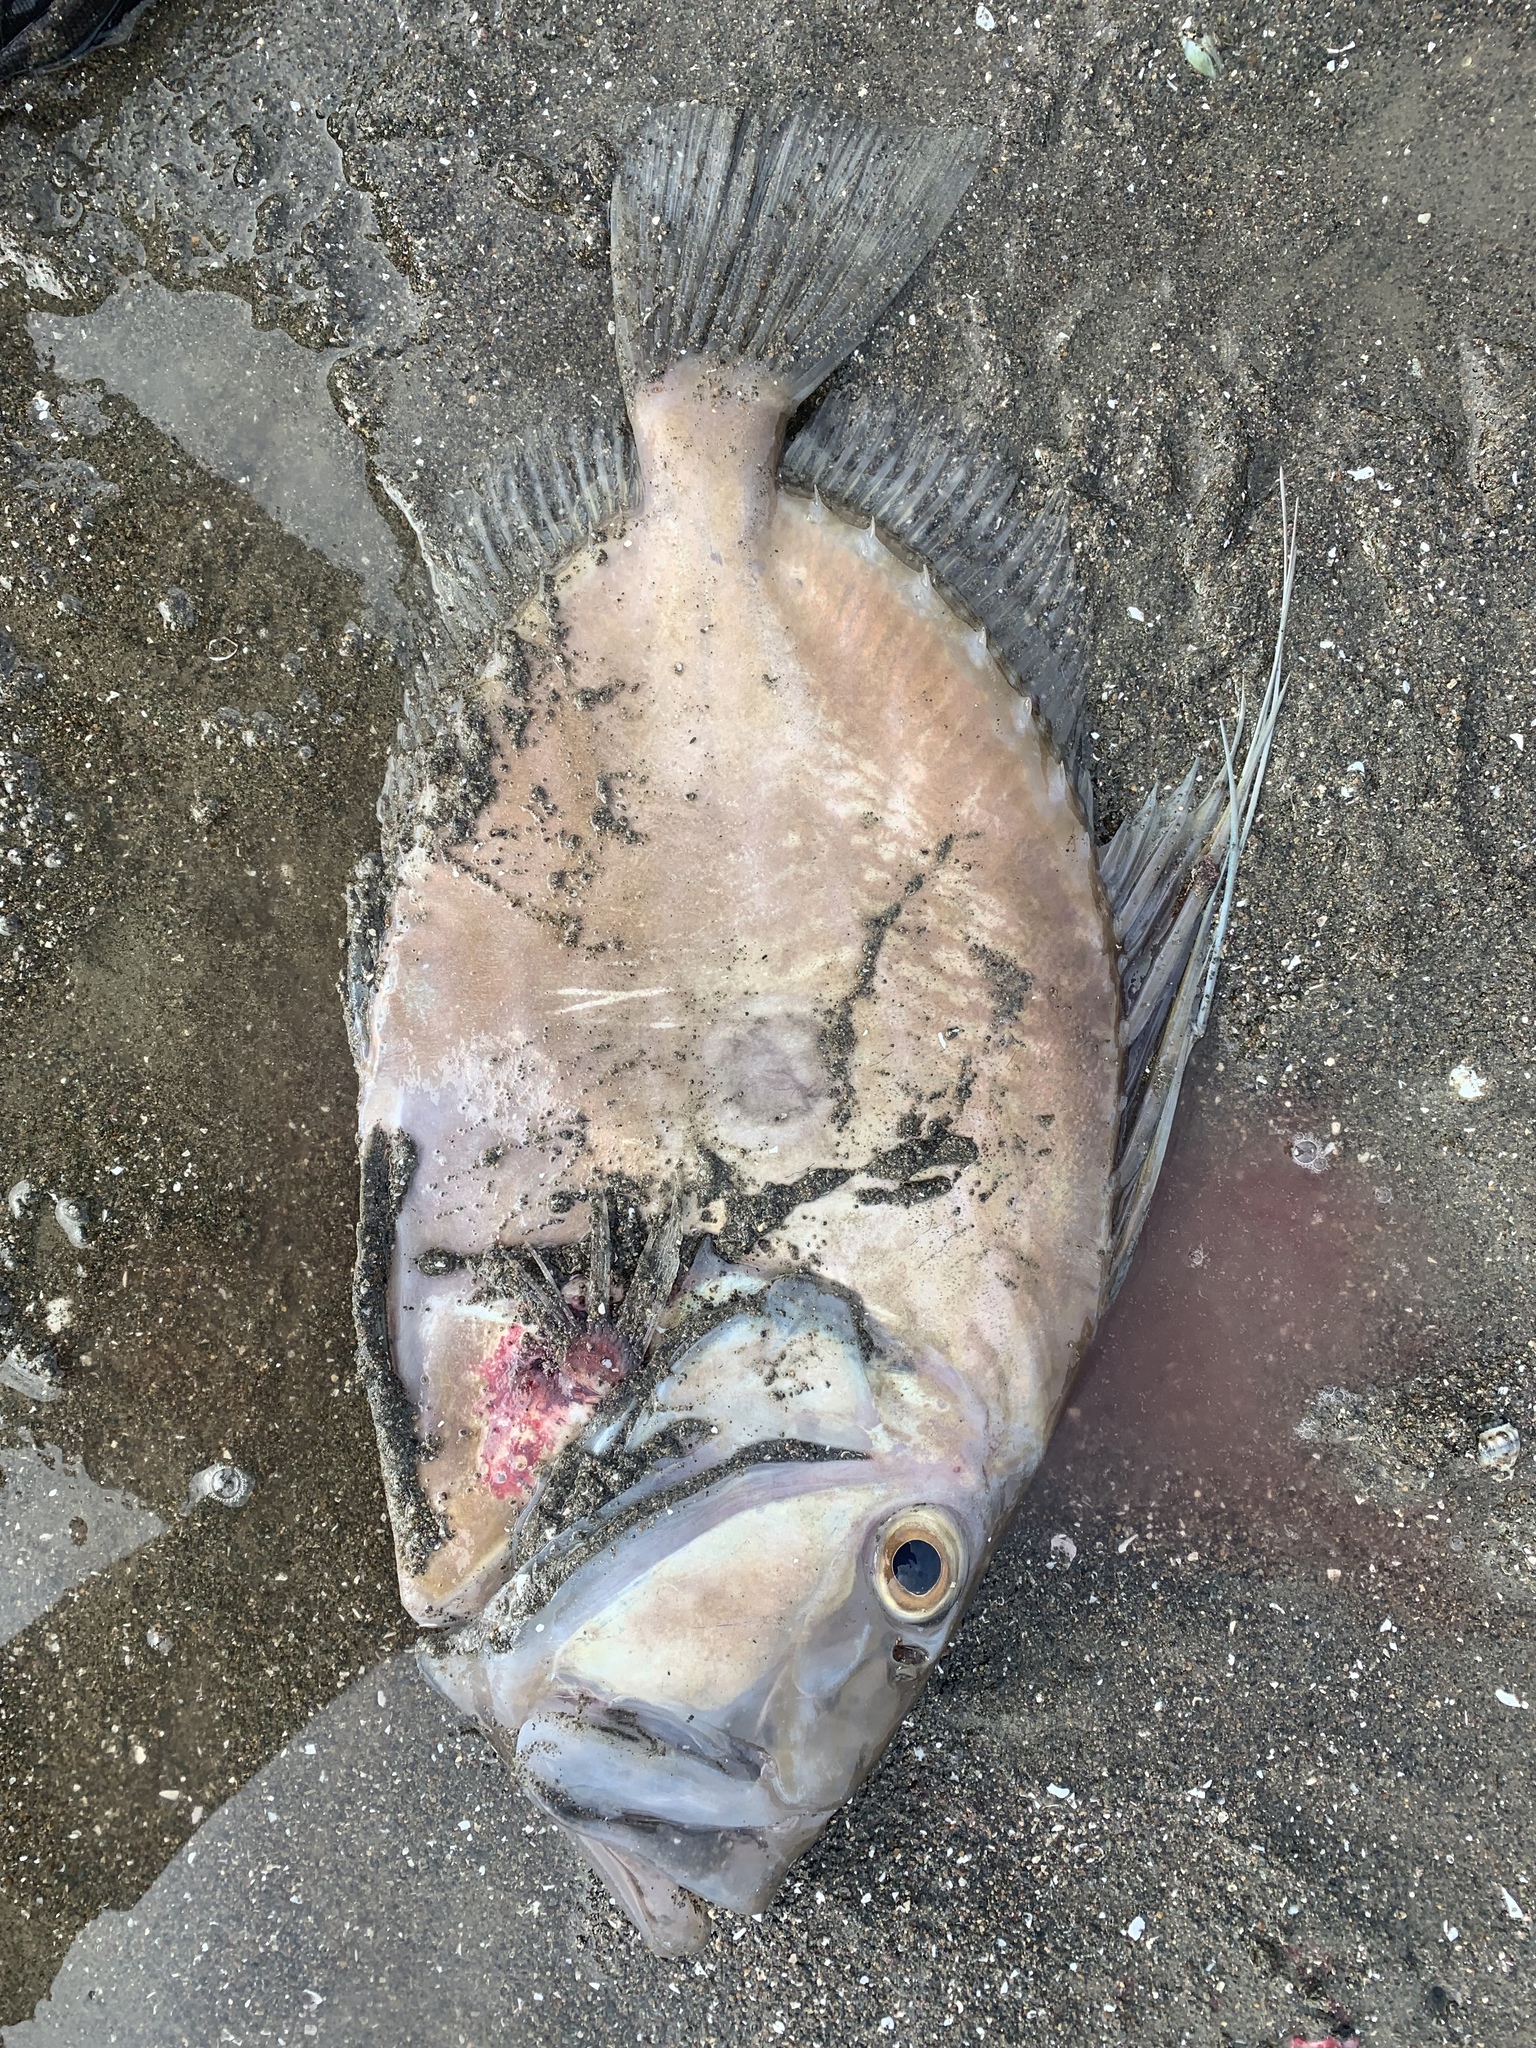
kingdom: Animalia
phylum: Chordata
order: Zeiformes
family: Zeidae
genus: Zeus
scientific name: Zeus faber
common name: John dory
